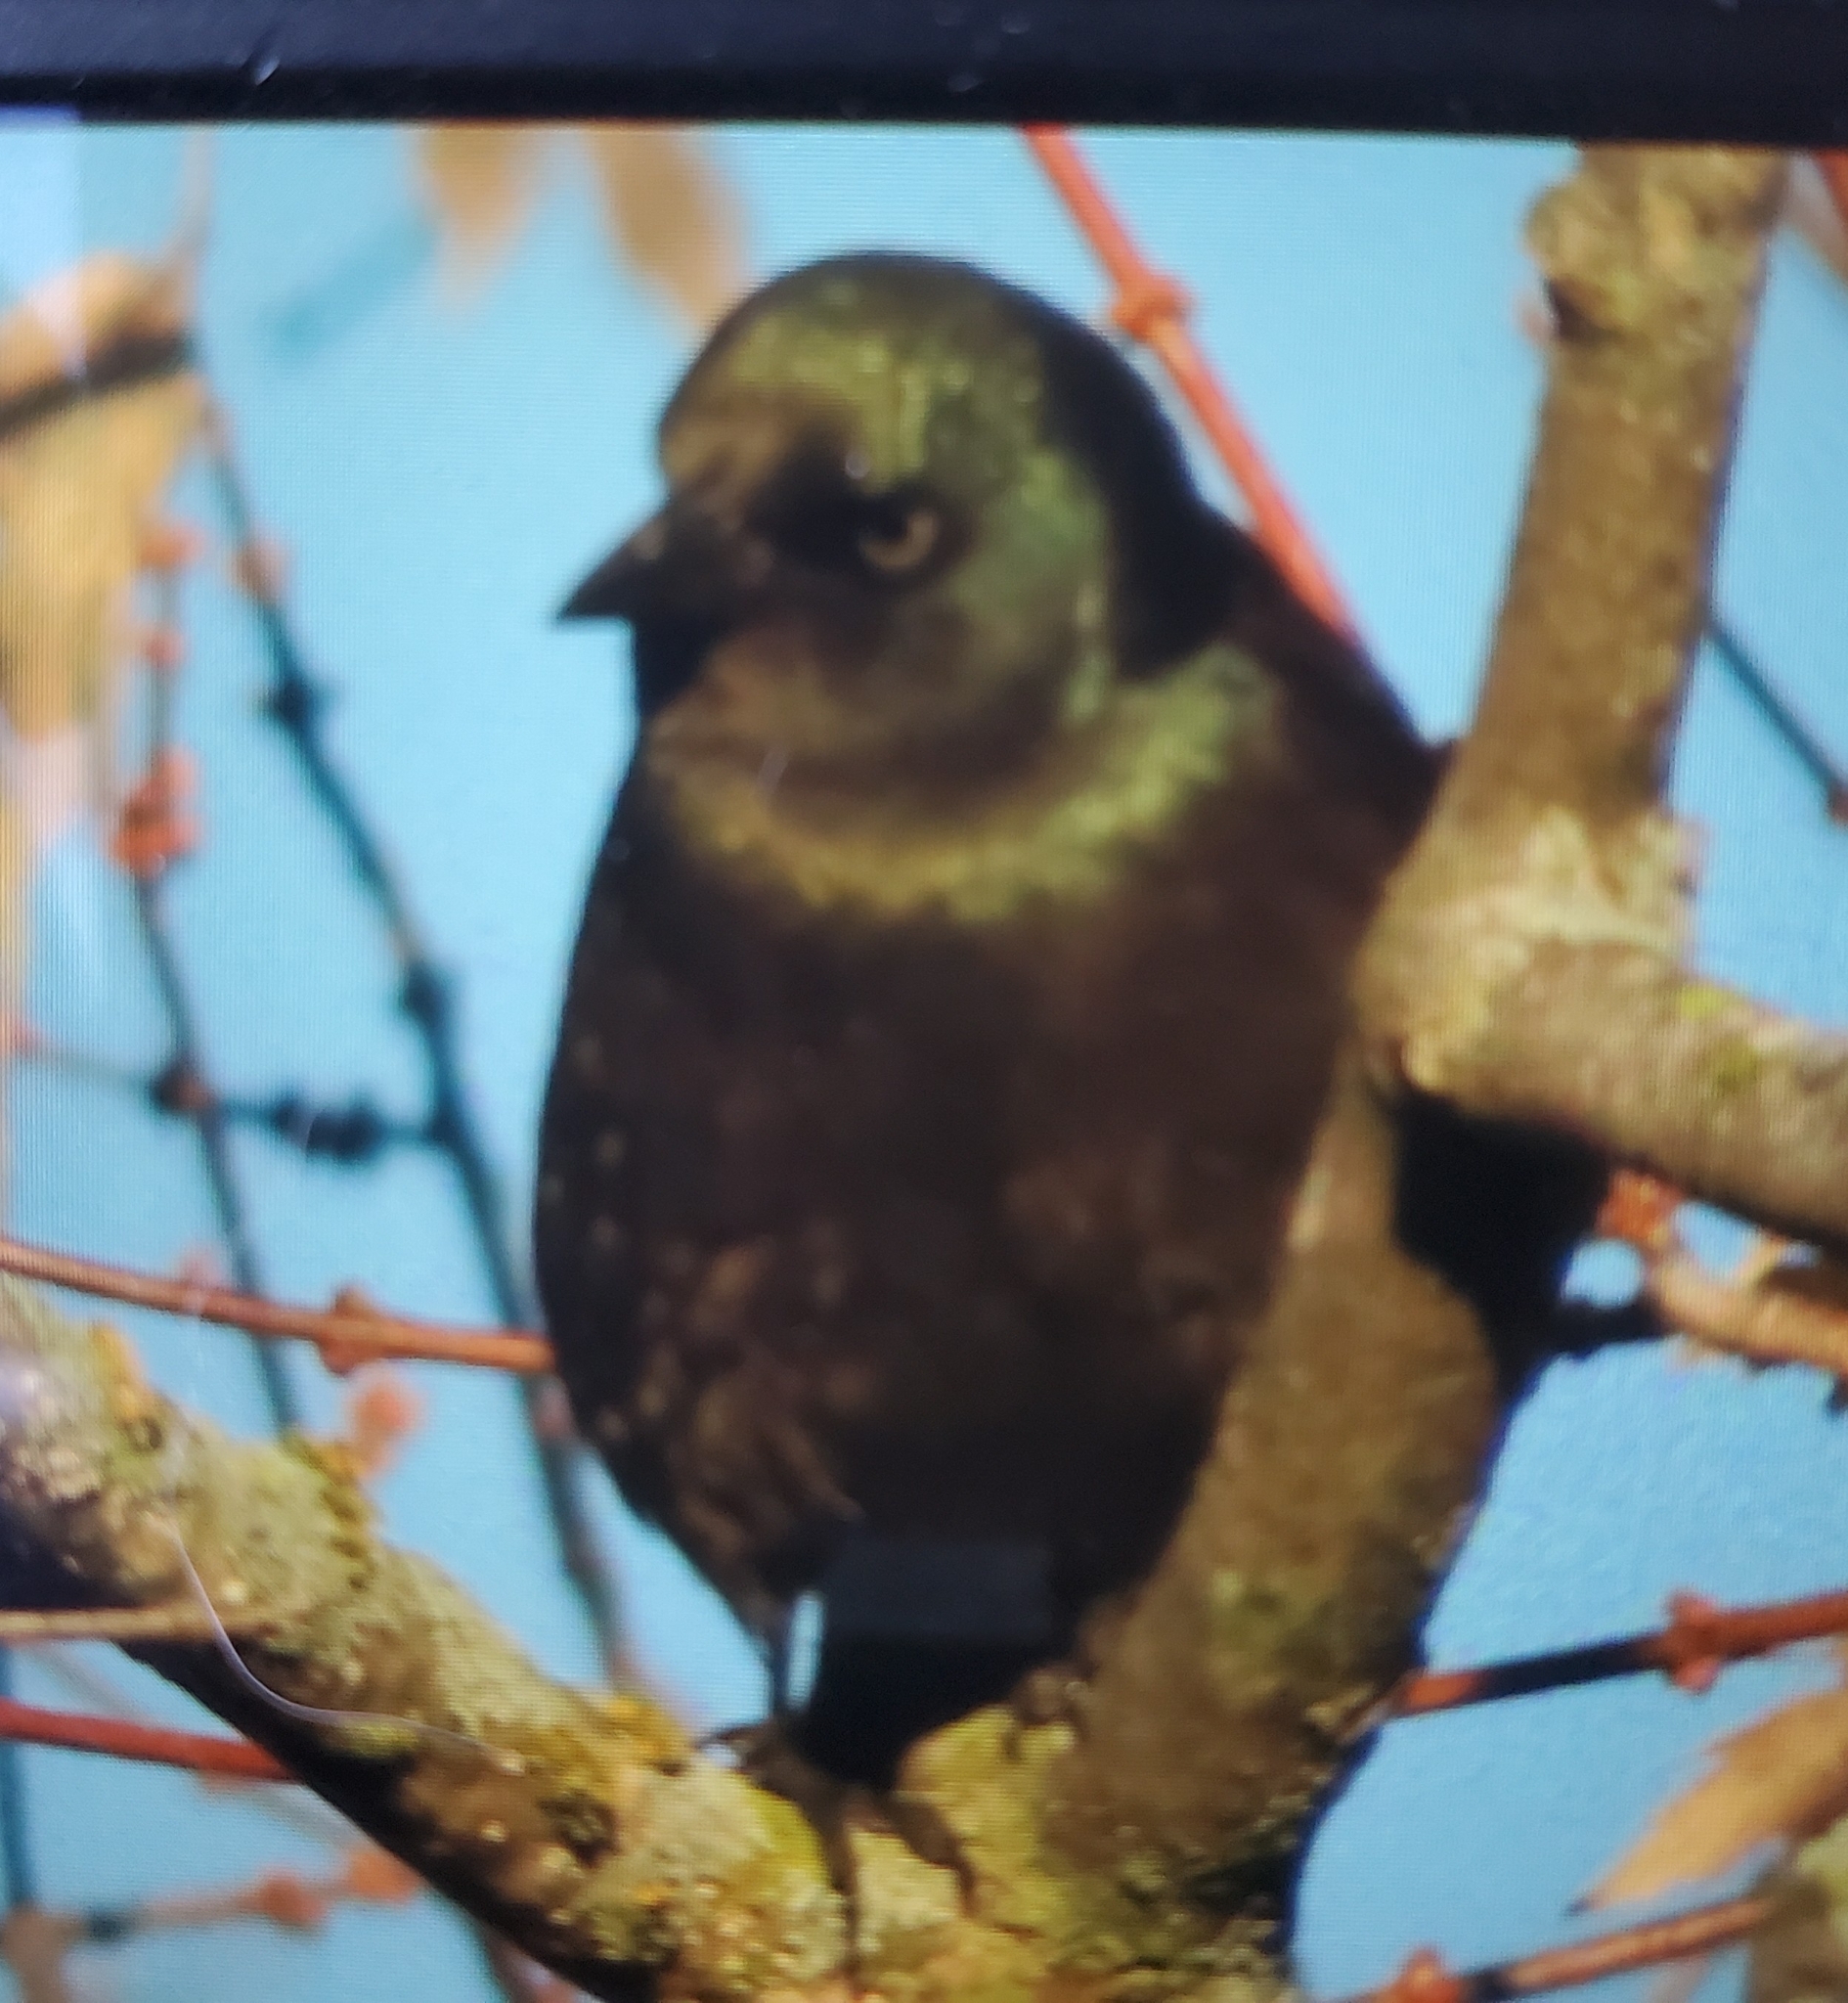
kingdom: Animalia
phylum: Chordata
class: Aves
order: Passeriformes
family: Icteridae
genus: Quiscalus
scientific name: Quiscalus quiscula
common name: Common grackle
